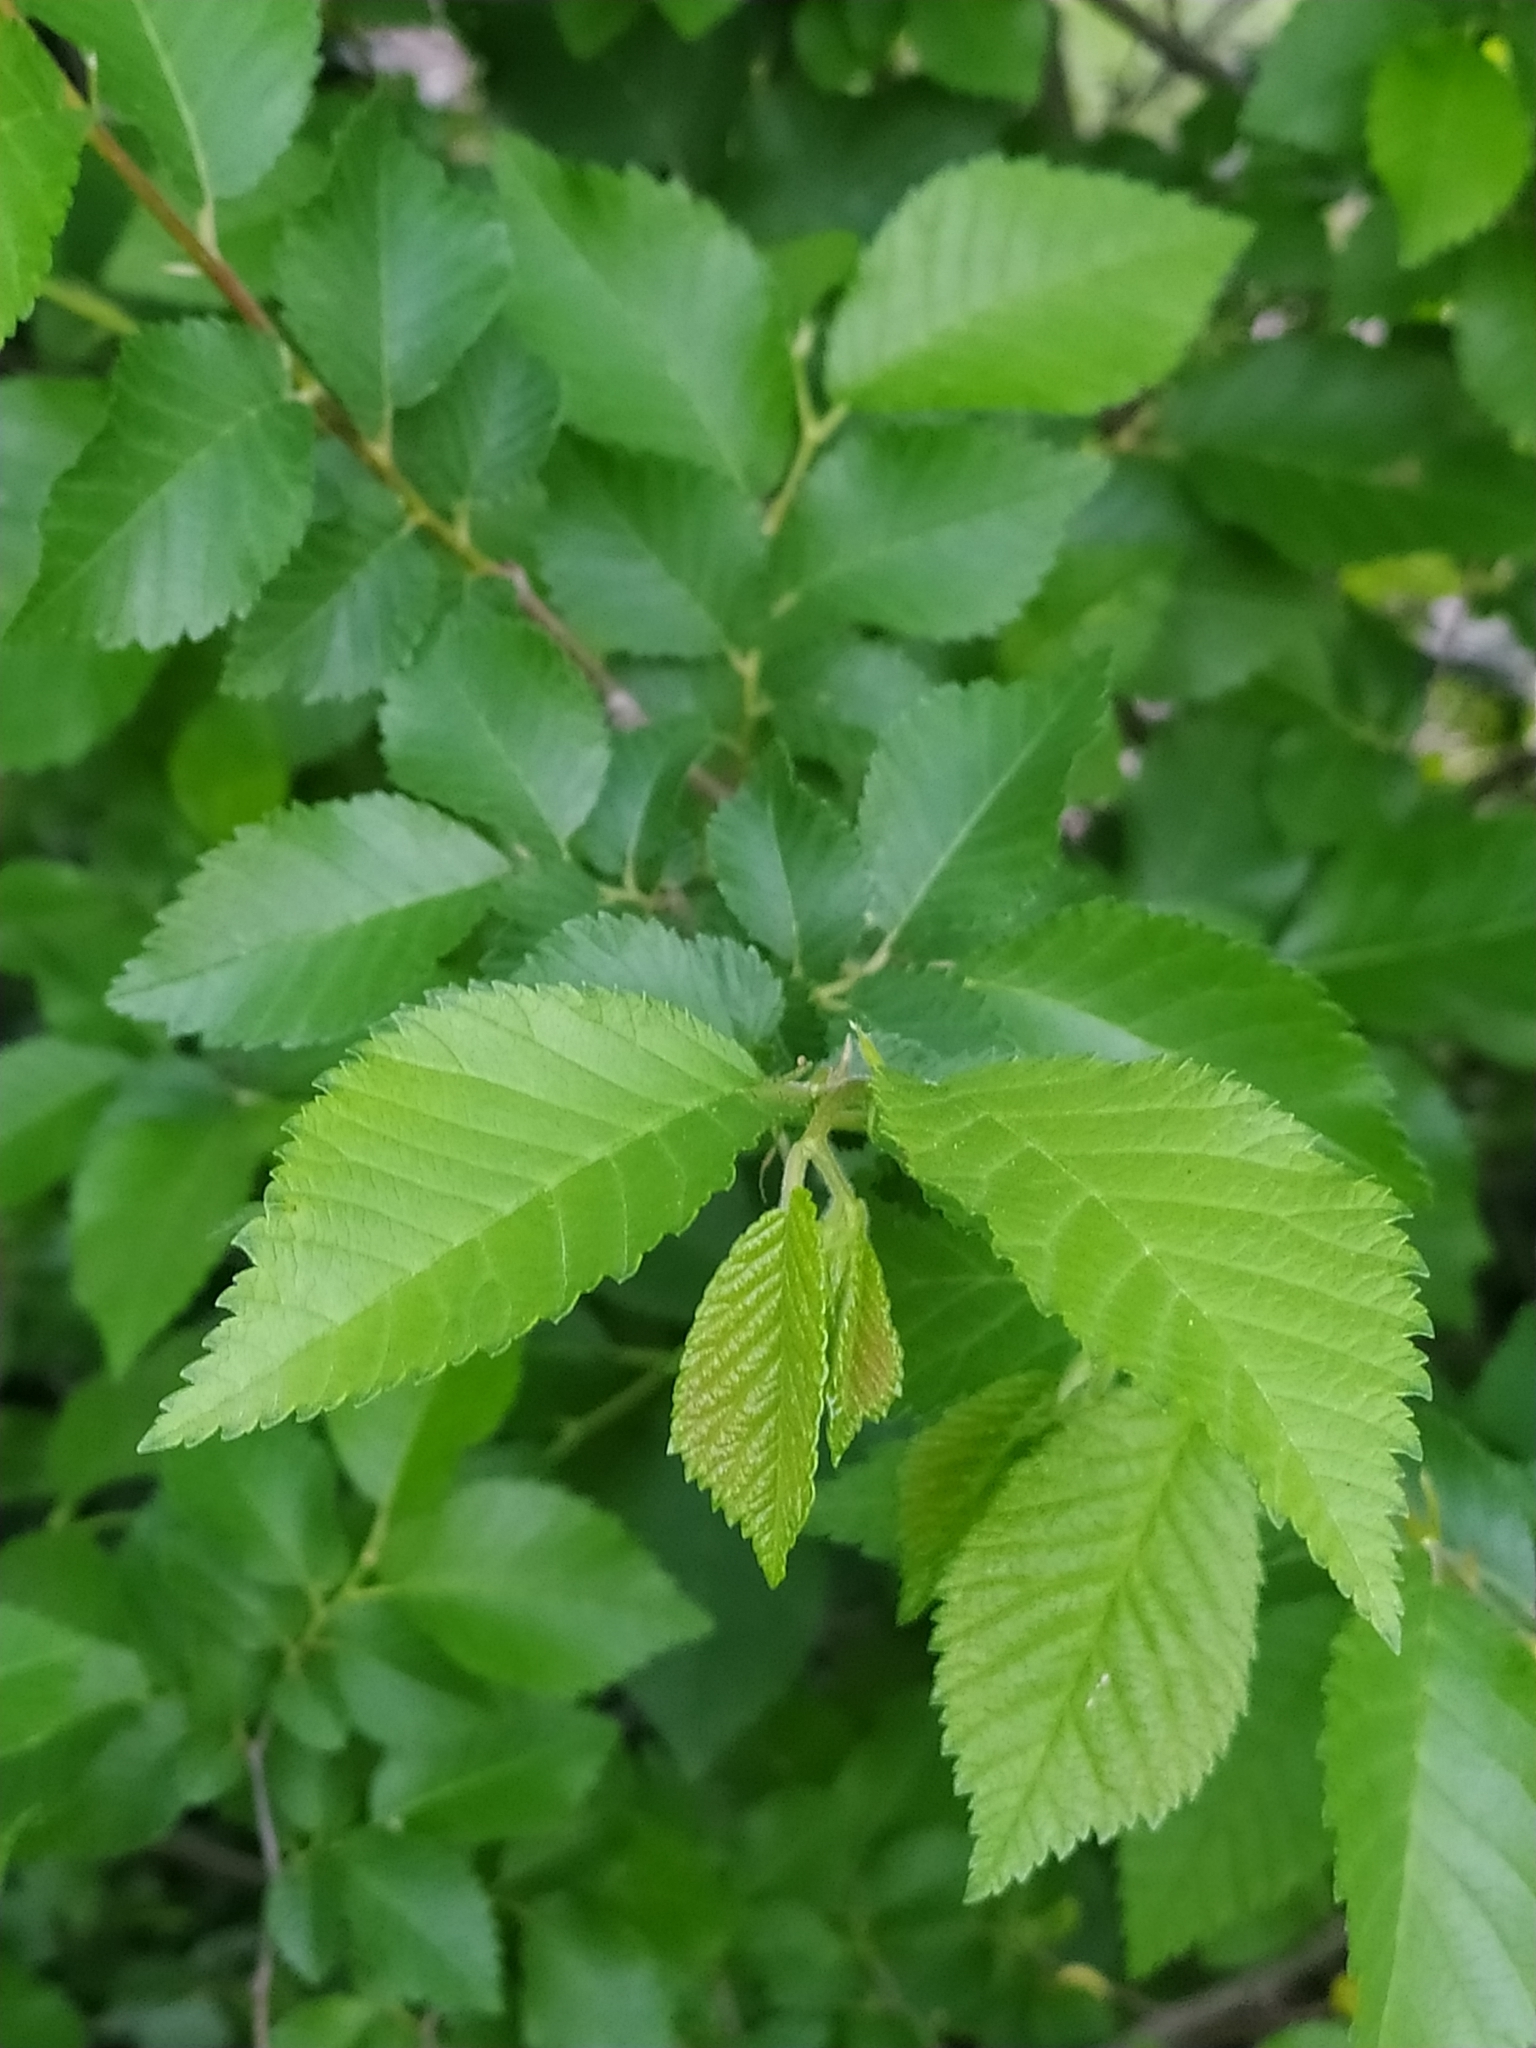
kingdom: Plantae
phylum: Tracheophyta
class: Magnoliopsida
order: Rosales
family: Ulmaceae
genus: Ulmus
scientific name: Ulmus minor
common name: Small-leaved elm
